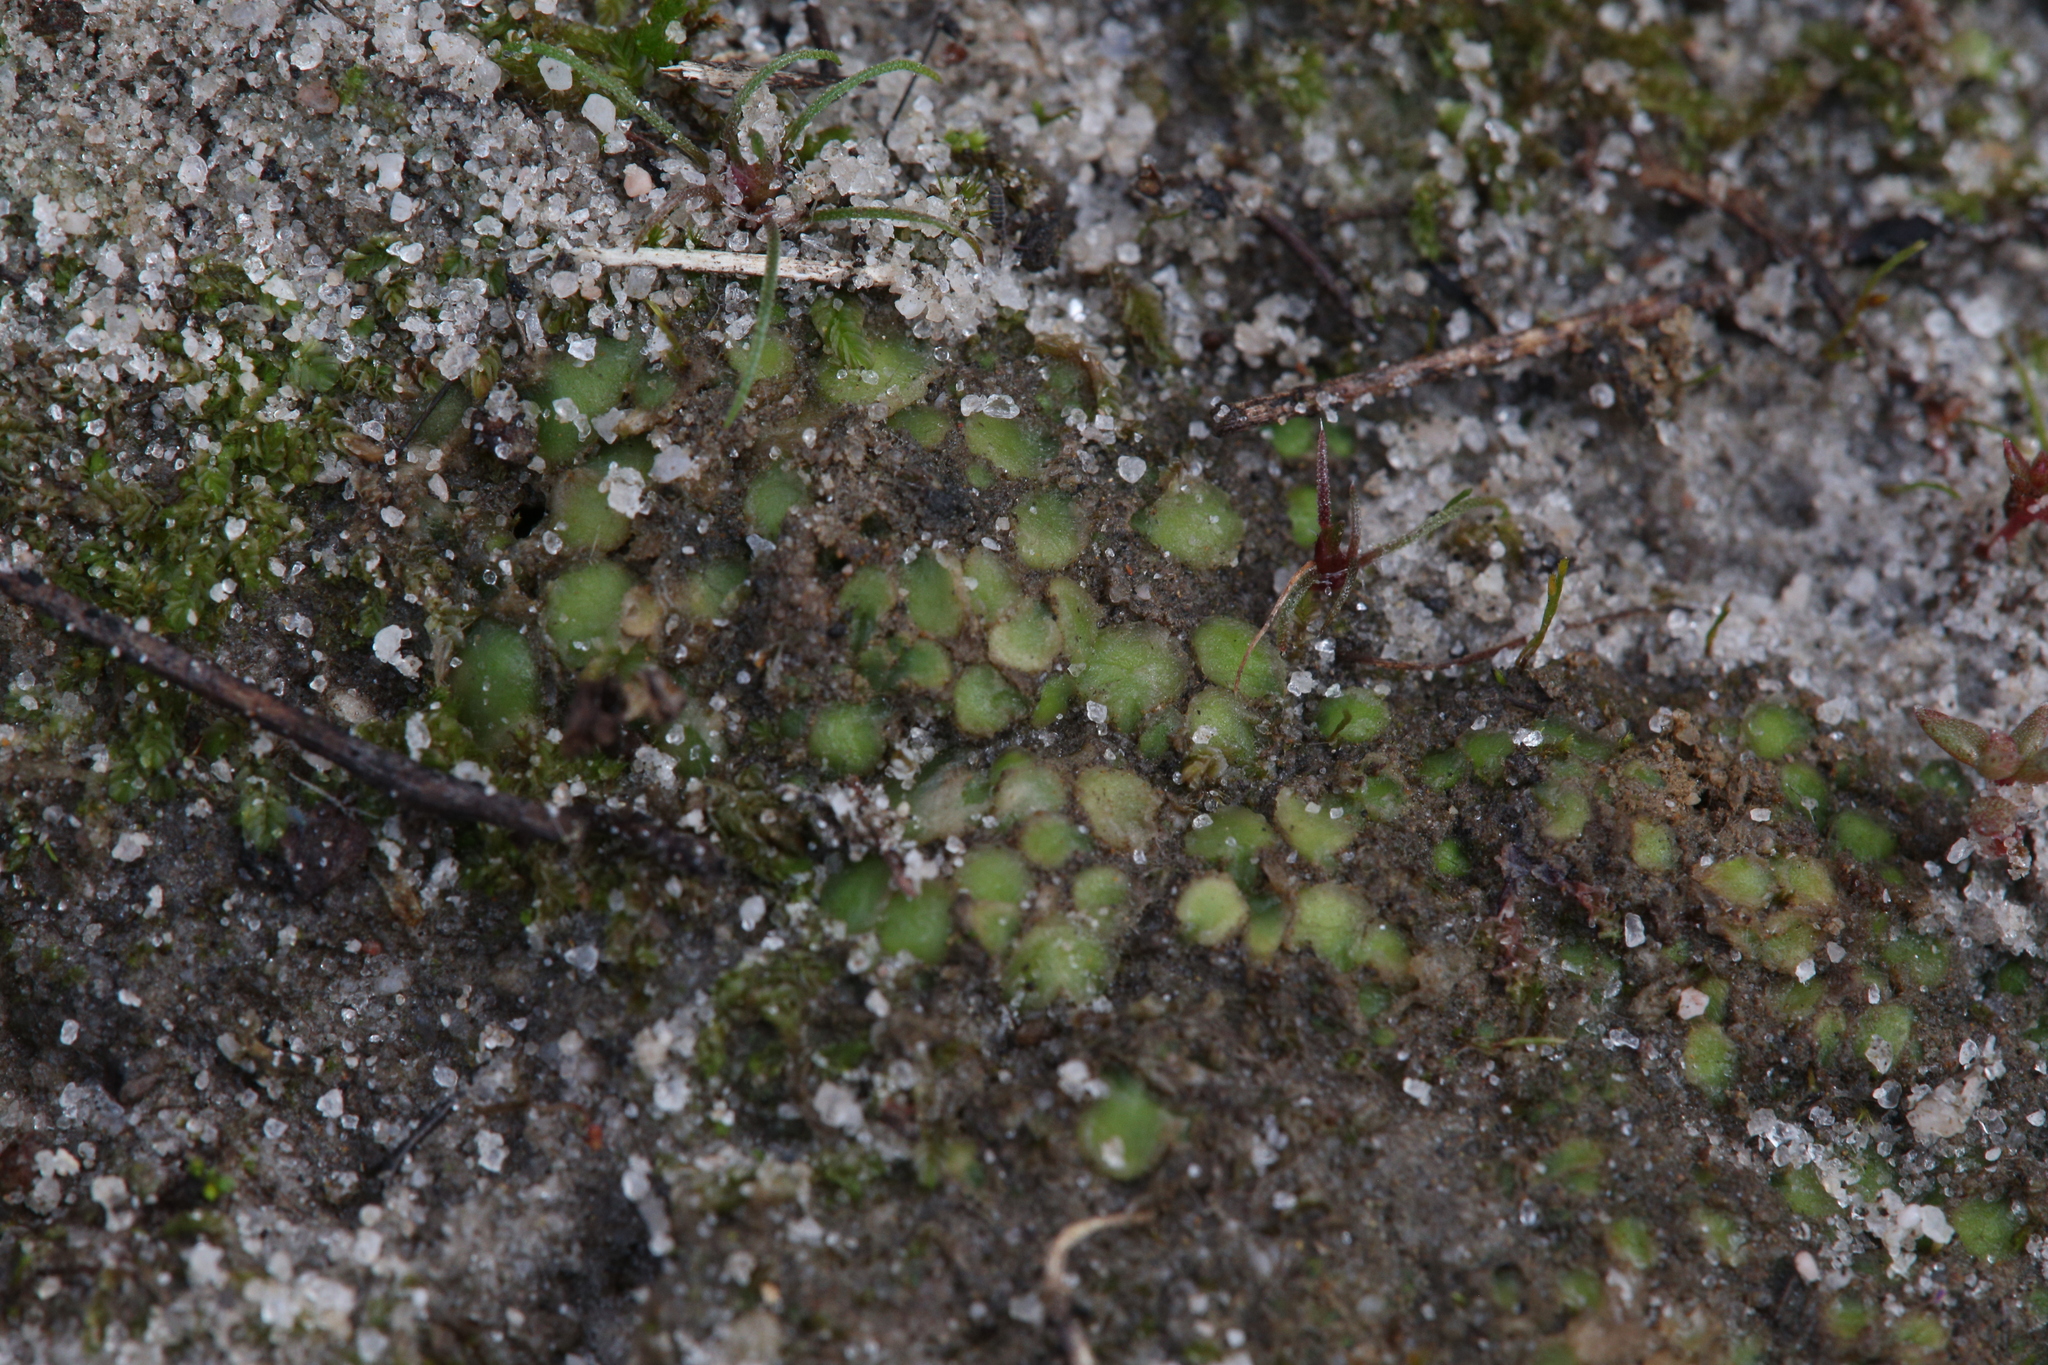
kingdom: Plantae
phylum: Marchantiophyta
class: Jungermanniopsida
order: Jungermanniales
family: Acrobolbaceae
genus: Enigmella
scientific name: Enigmella thallina
